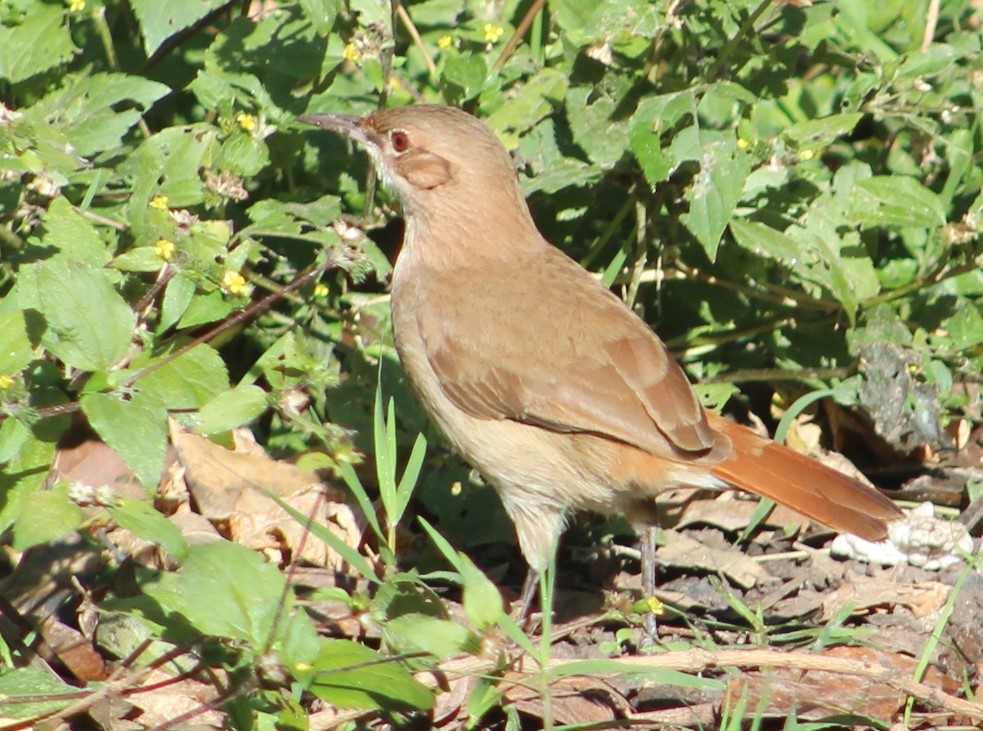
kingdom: Animalia
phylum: Chordata
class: Aves
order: Passeriformes
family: Furnariidae
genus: Furnarius
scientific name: Furnarius rufus
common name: Rufous hornero
